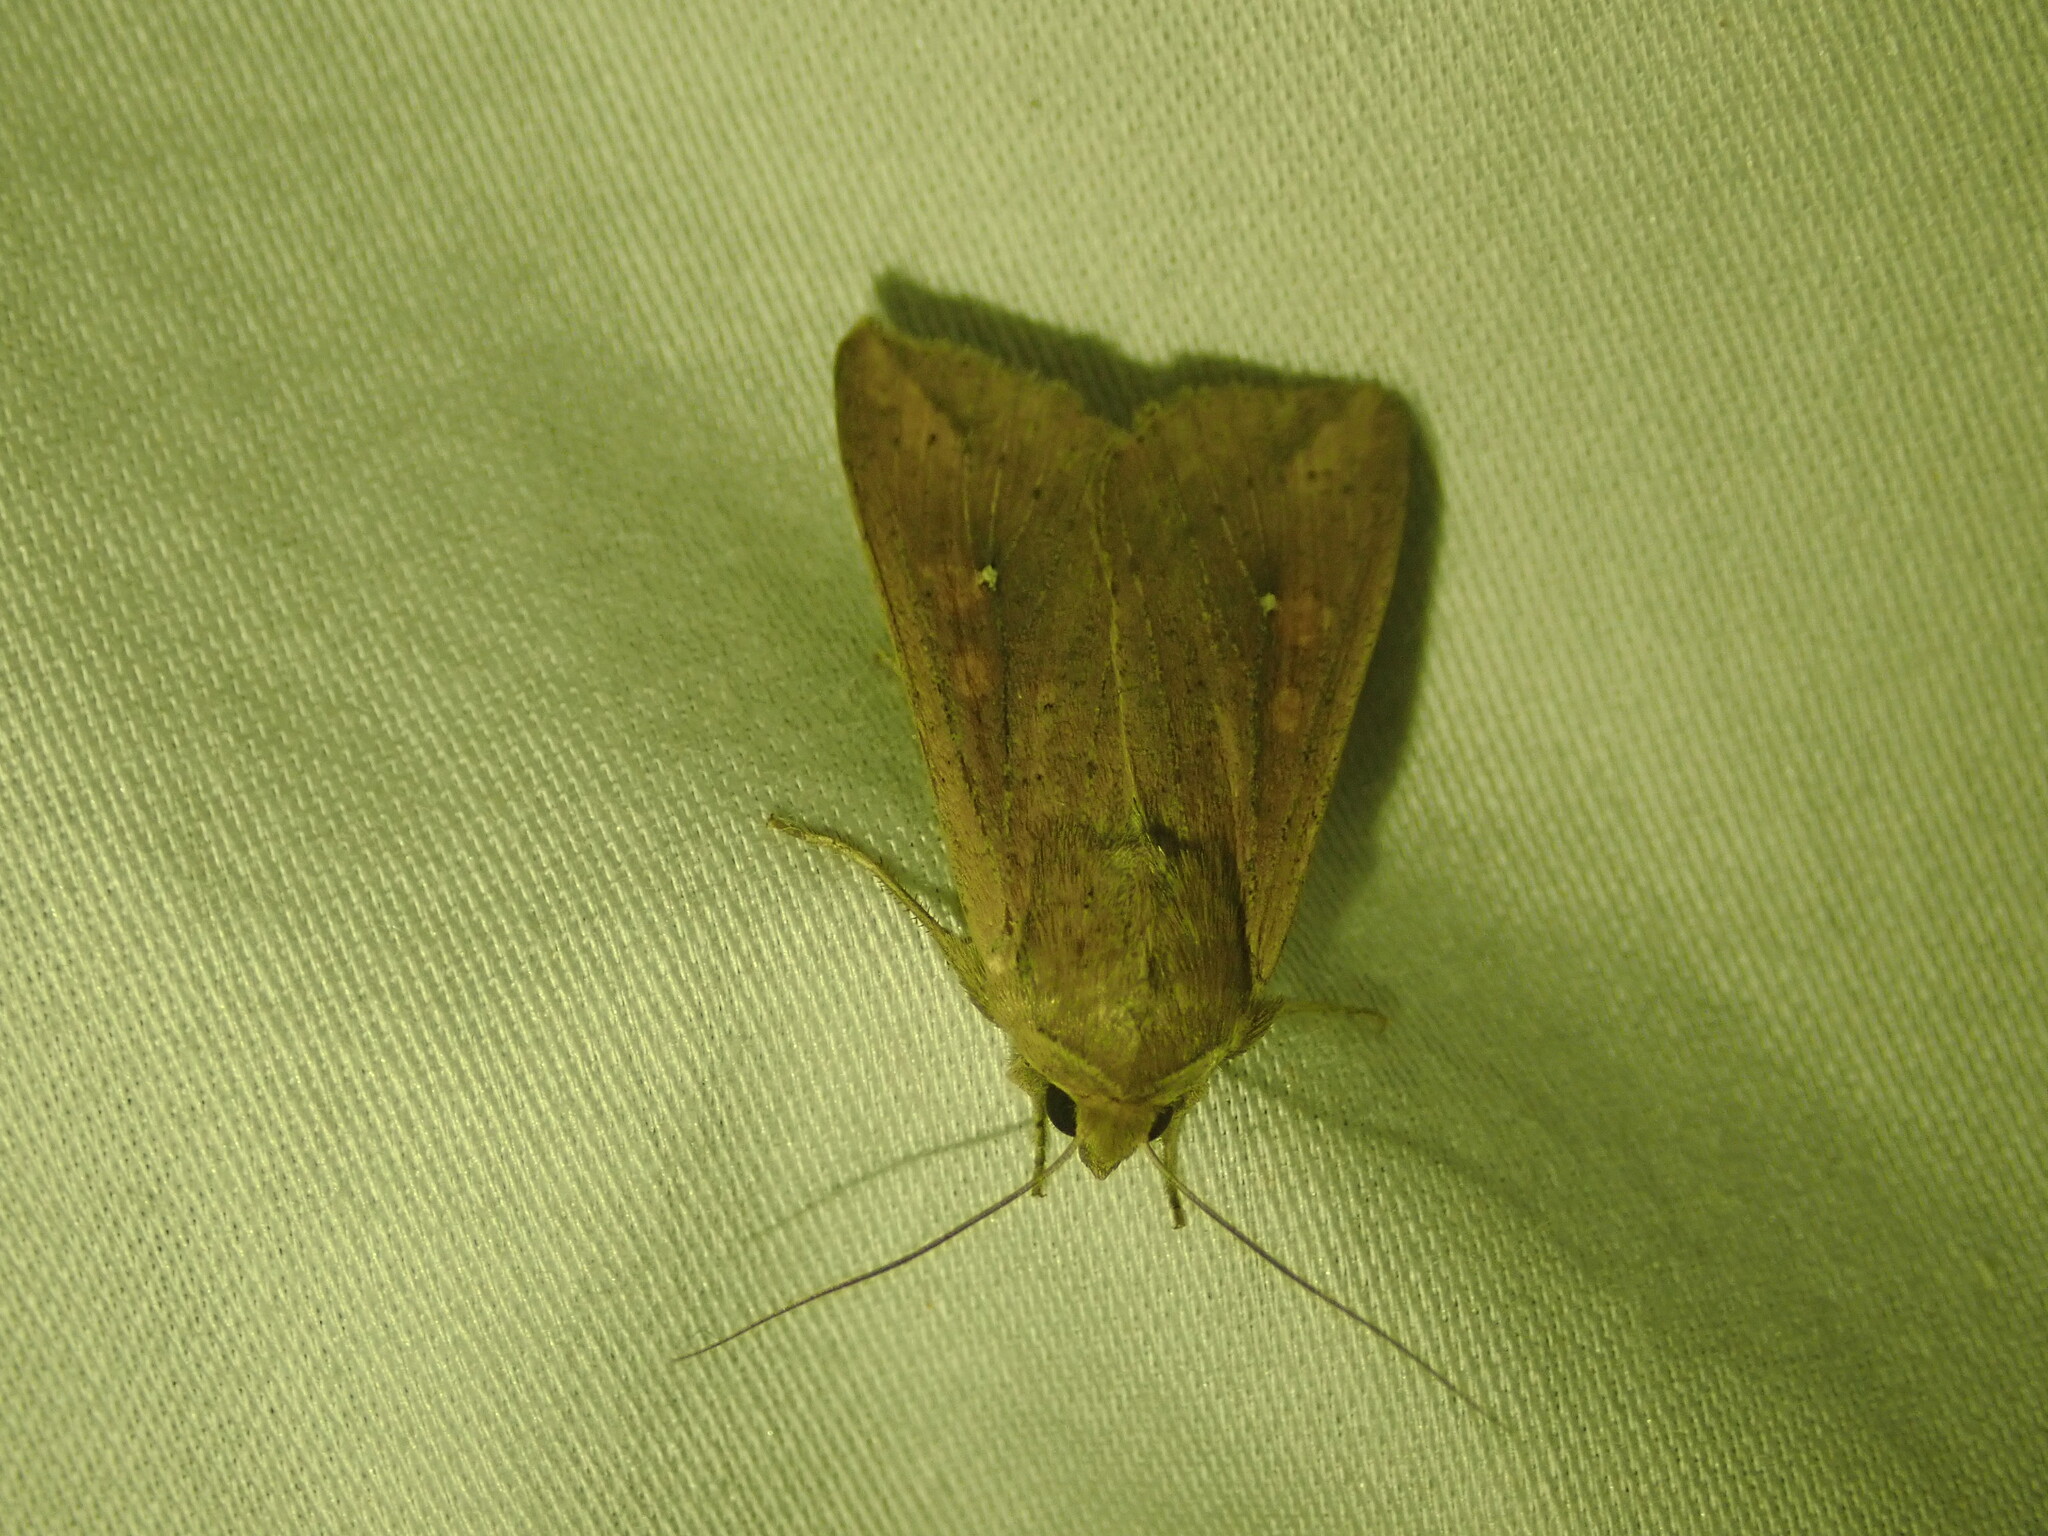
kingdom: Animalia
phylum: Arthropoda
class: Insecta
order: Lepidoptera
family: Noctuidae
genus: Mythimna
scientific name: Mythimna unipuncta
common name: White-speck
